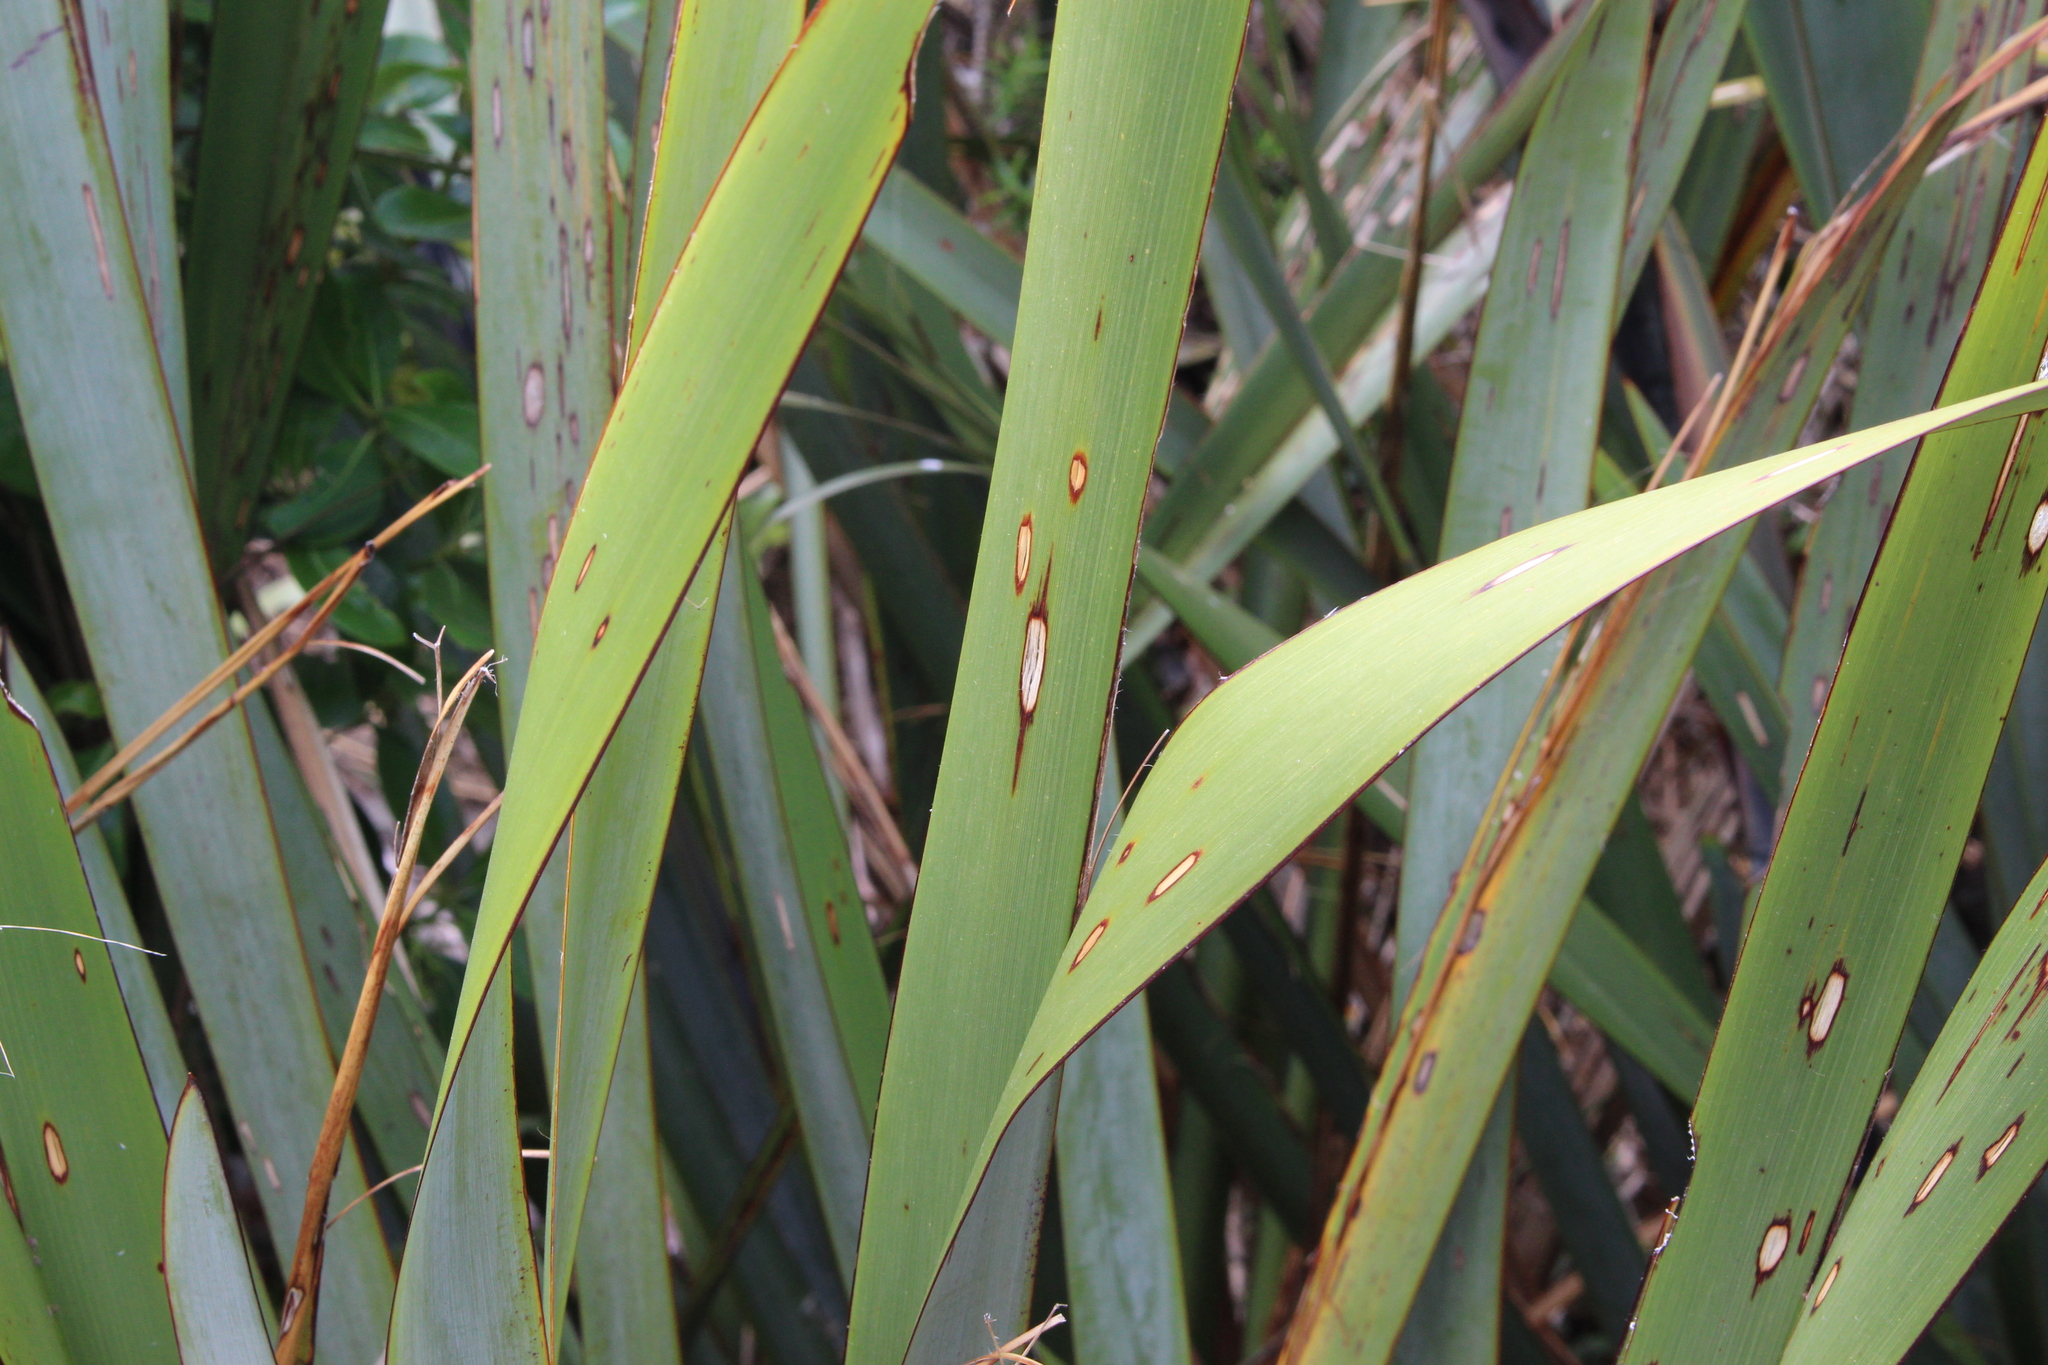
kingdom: Animalia
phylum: Arthropoda
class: Insecta
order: Lepidoptera
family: Geometridae
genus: Orthoclydon
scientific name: Orthoclydon praefectata
